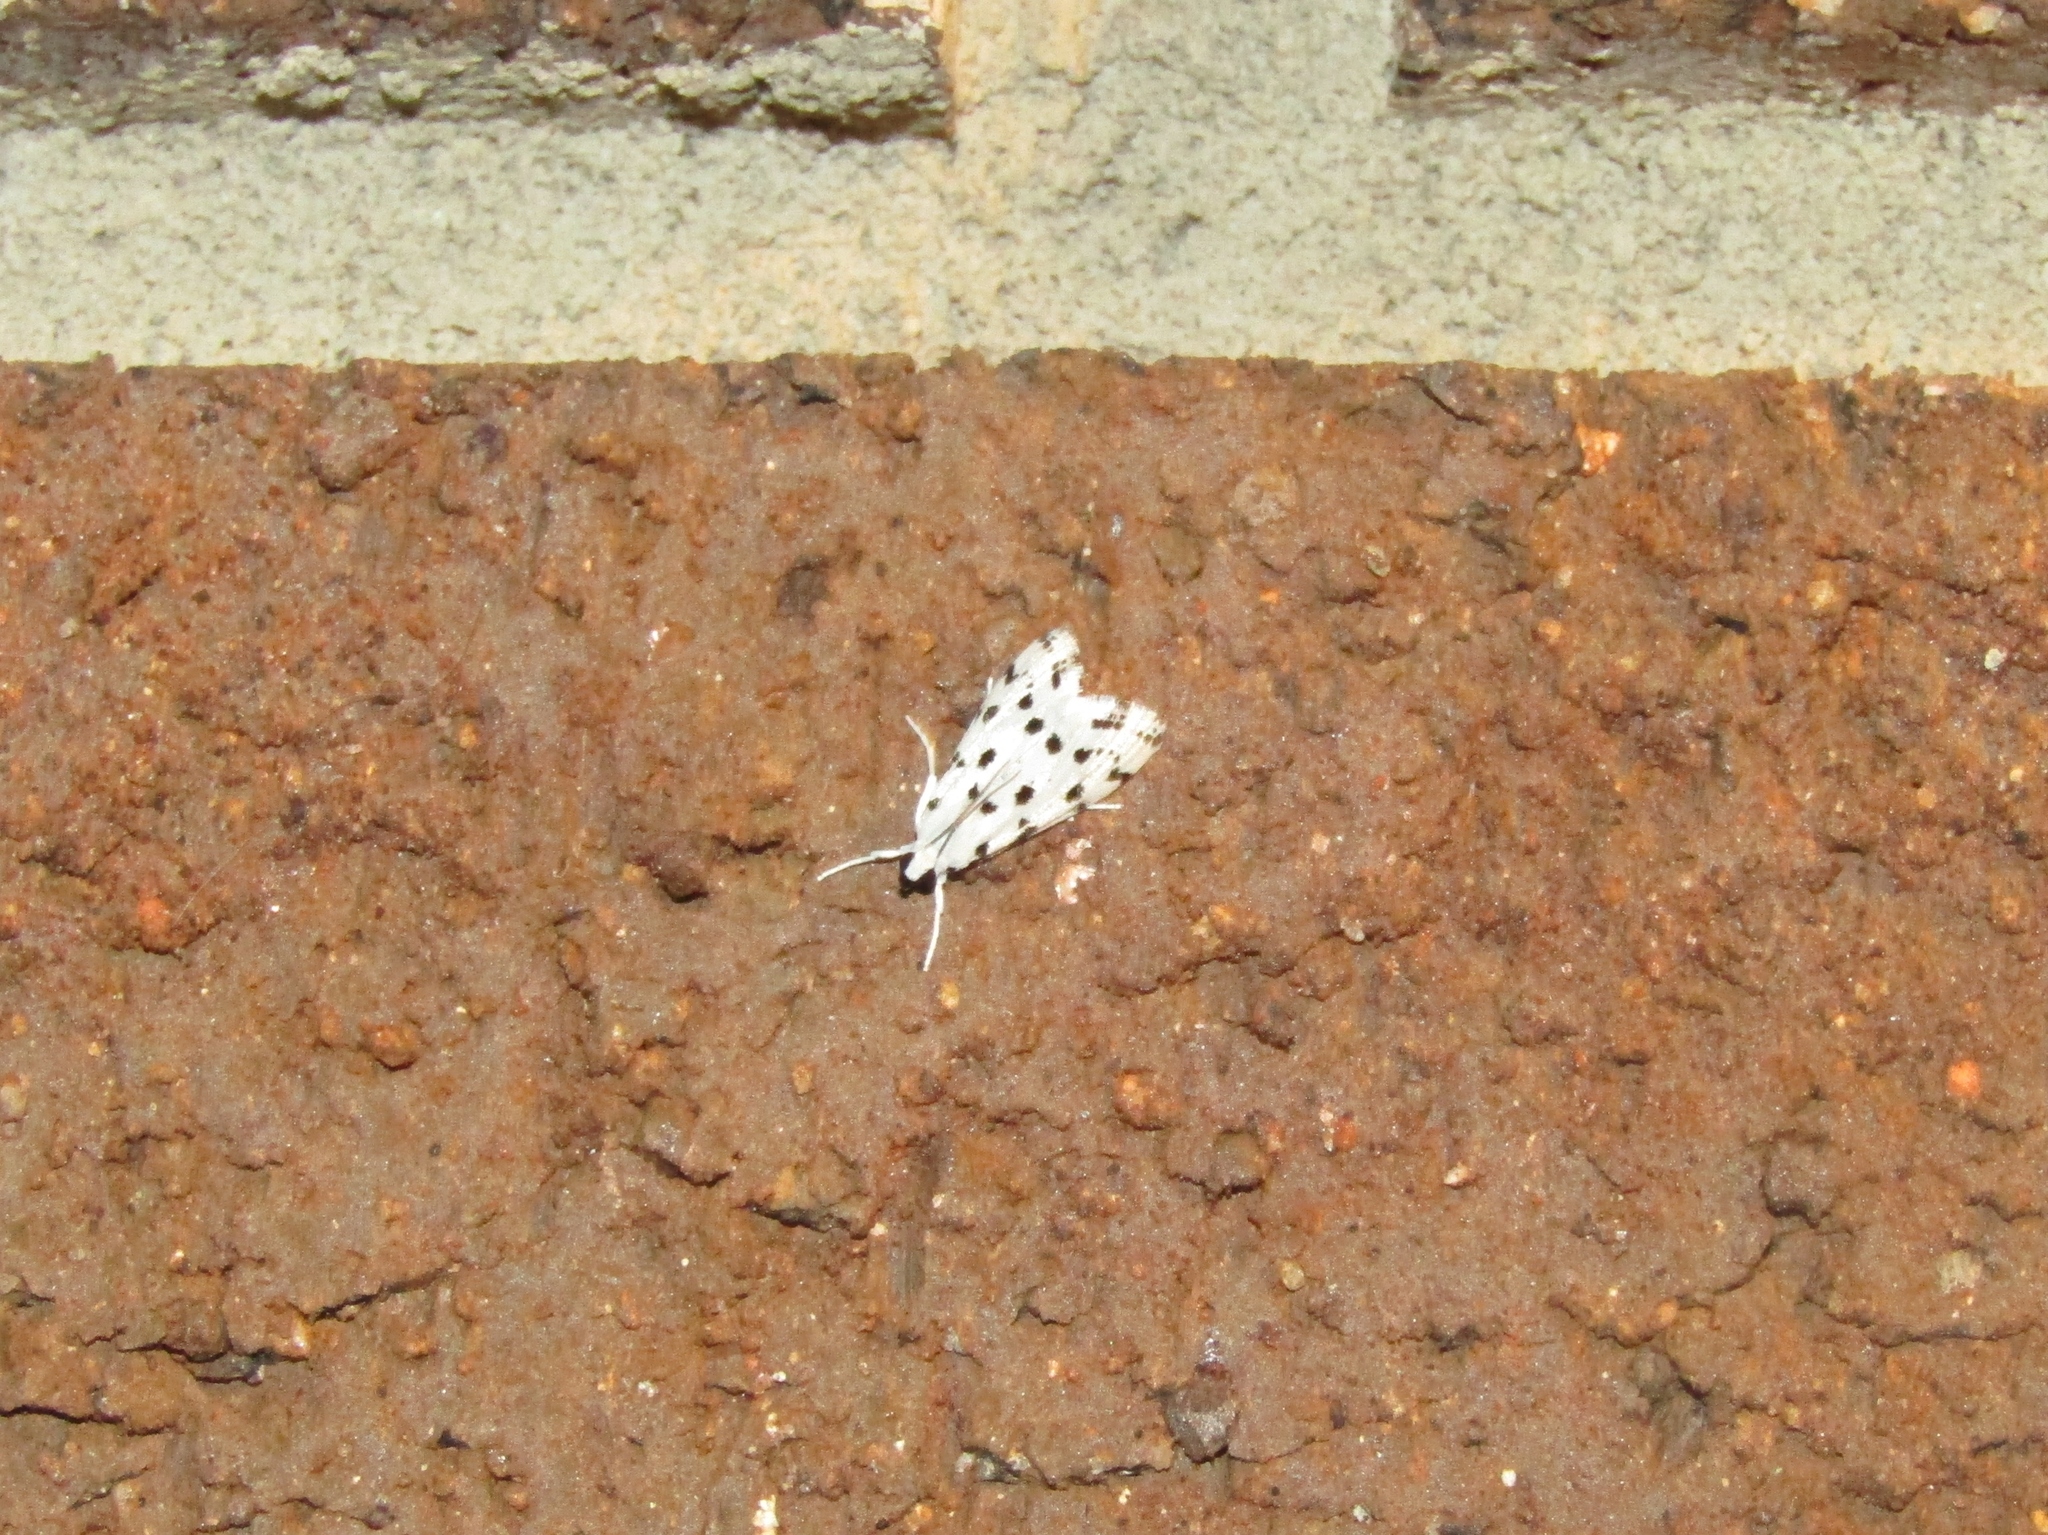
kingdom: Animalia
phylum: Arthropoda
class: Insecta
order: Lepidoptera
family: Crambidae
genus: Eustixia
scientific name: Eustixia pupula
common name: American cabbage pearl
